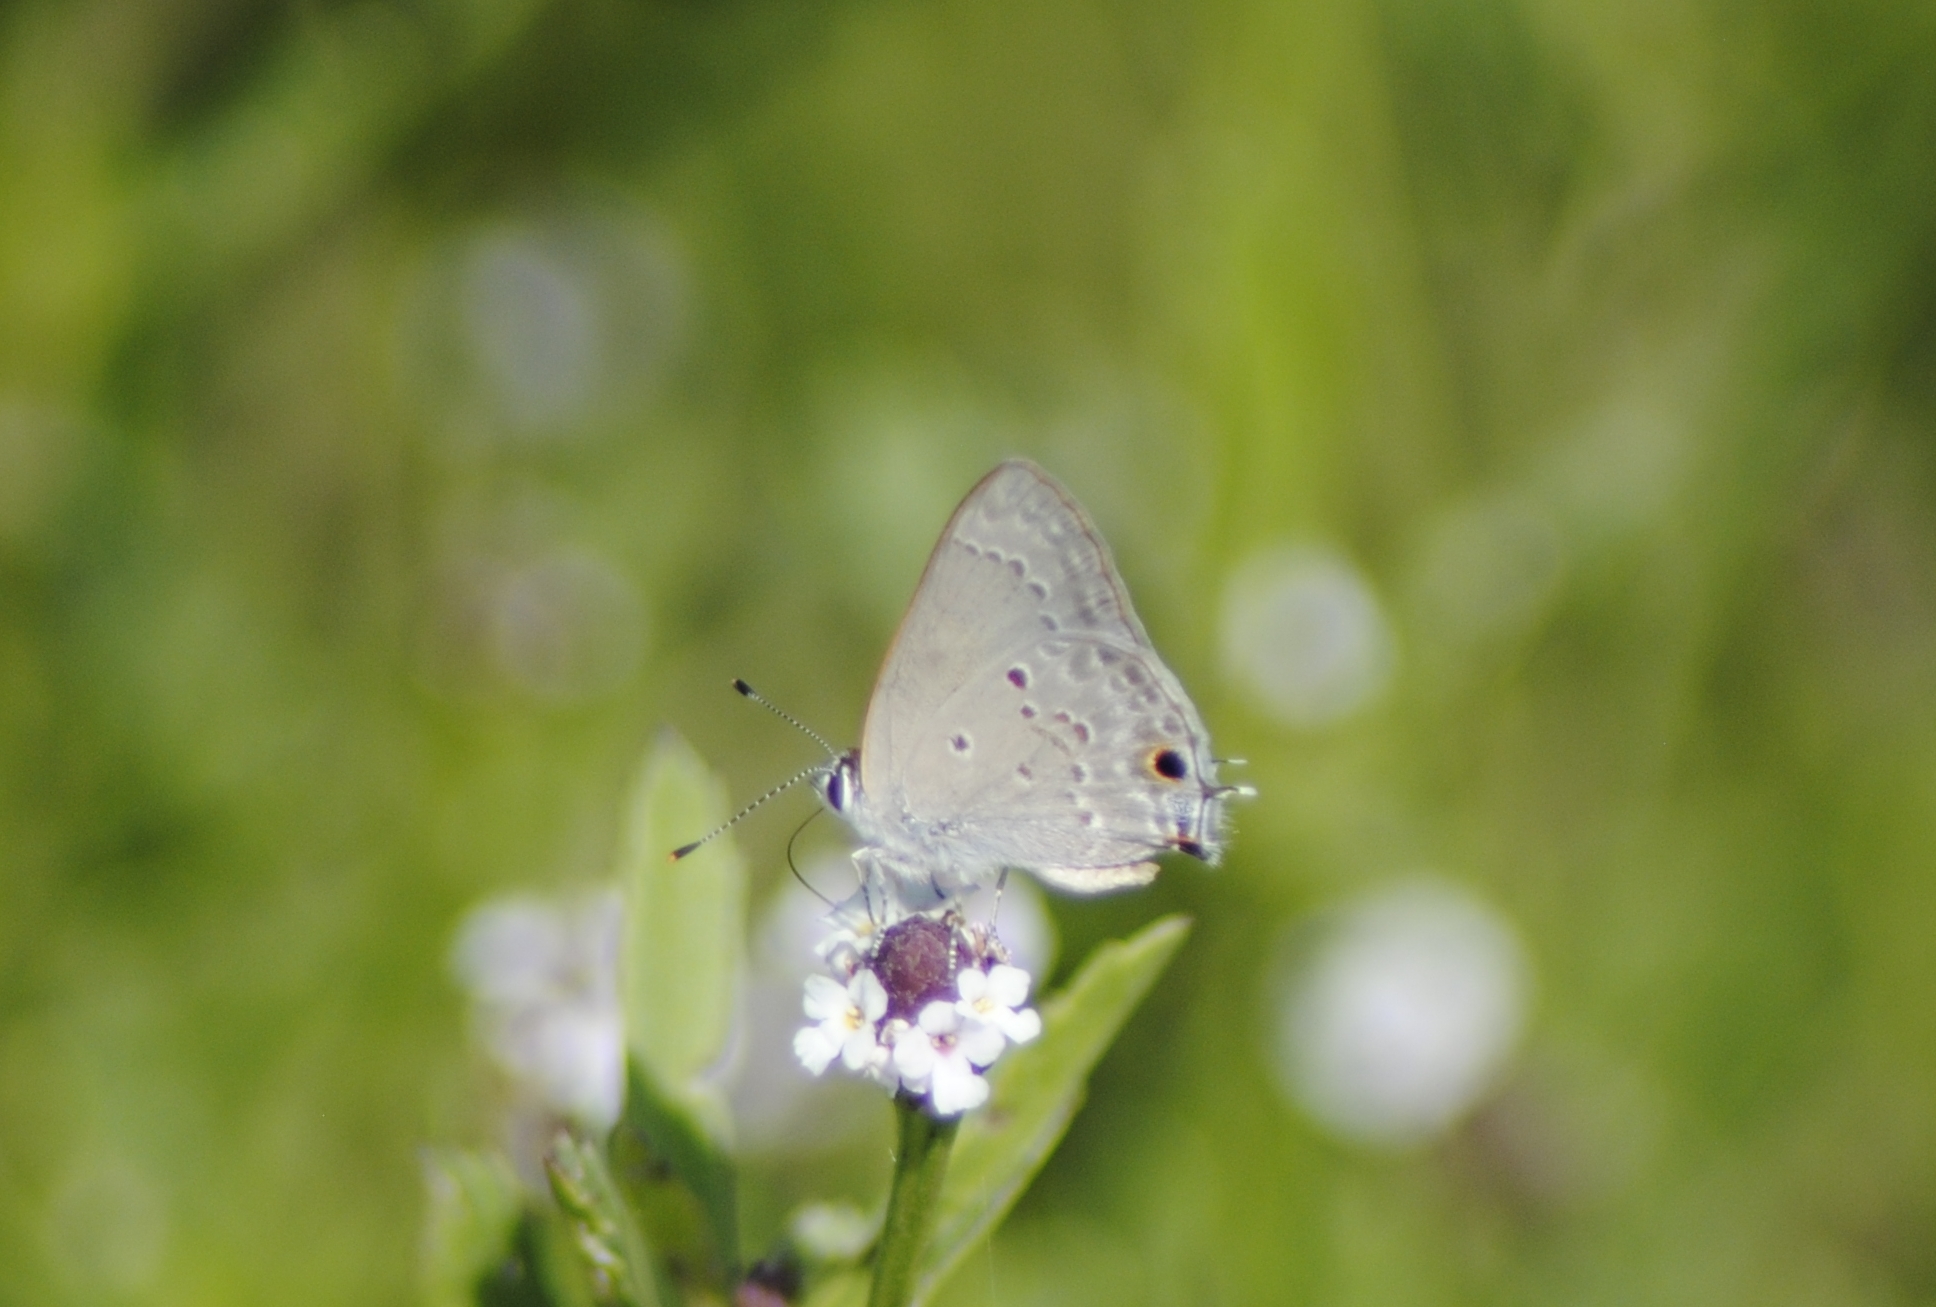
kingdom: Animalia
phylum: Arthropoda
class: Insecta
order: Lepidoptera
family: Lycaenidae
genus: Callicista
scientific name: Callicista columella
